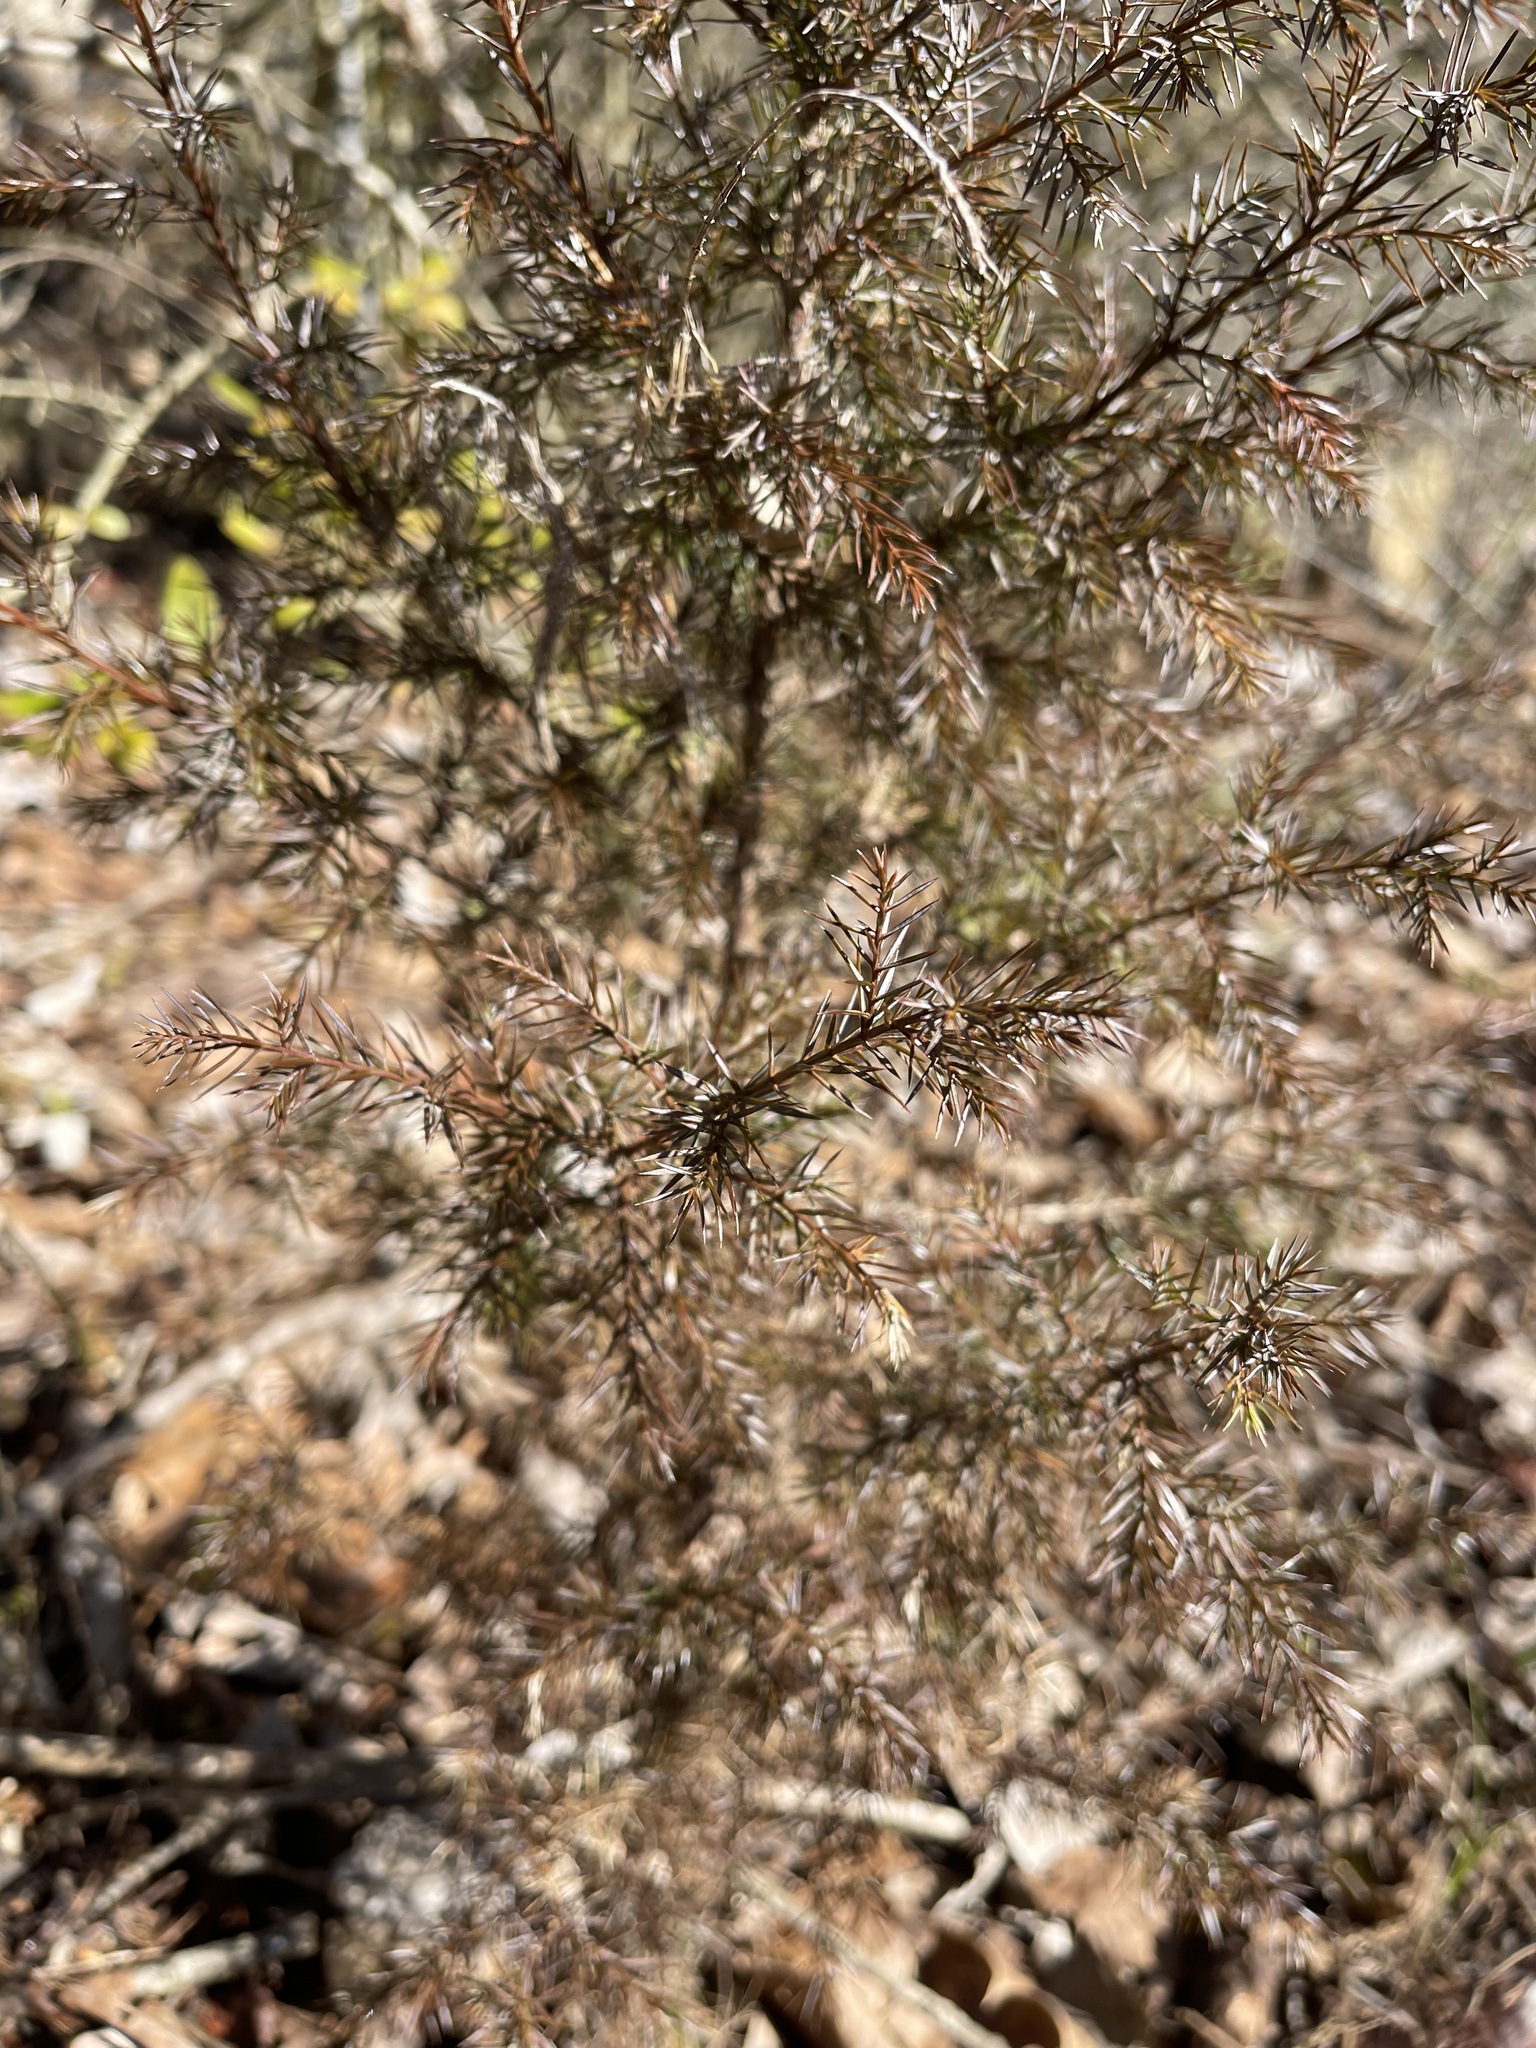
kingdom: Plantae
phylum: Tracheophyta
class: Pinopsida
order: Pinales
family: Cupressaceae
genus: Juniperus
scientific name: Juniperus virginiana
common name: Red juniper
